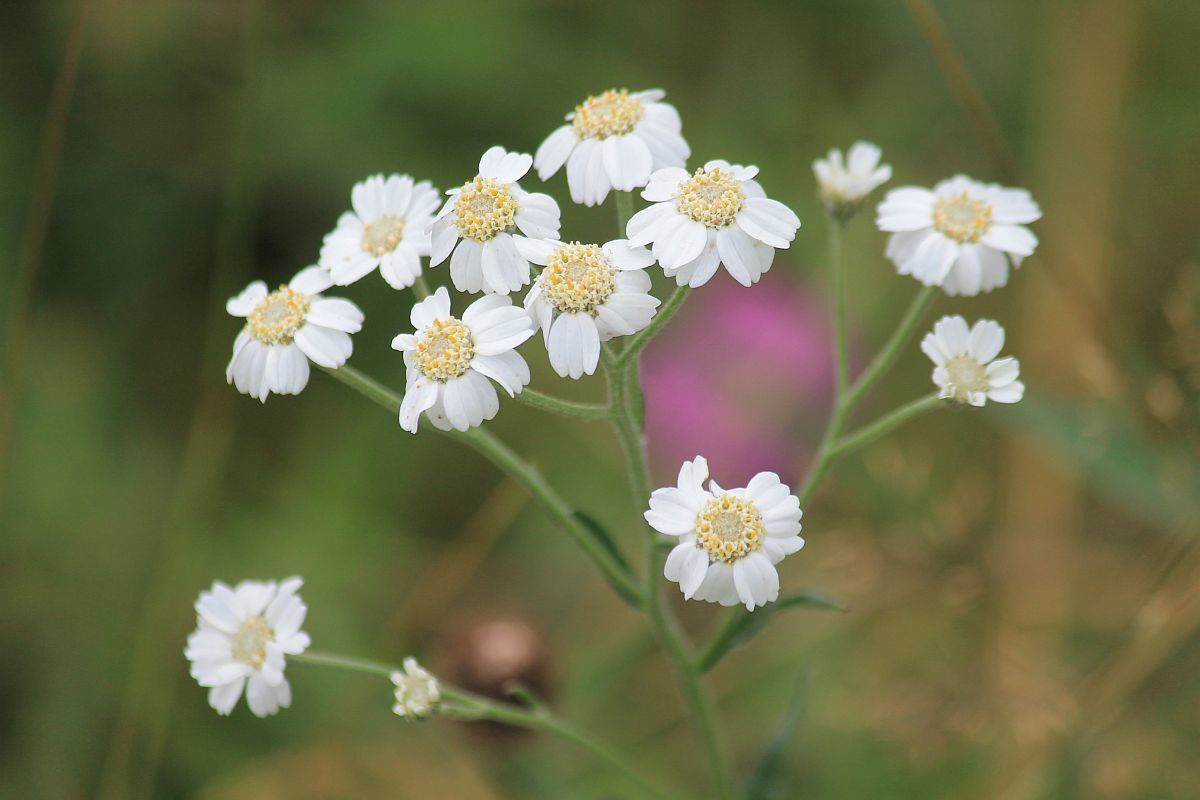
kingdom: Plantae
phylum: Tracheophyta
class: Magnoliopsida
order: Asterales
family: Asteraceae
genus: Achillea
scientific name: Achillea ptarmica
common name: Sneezeweed
